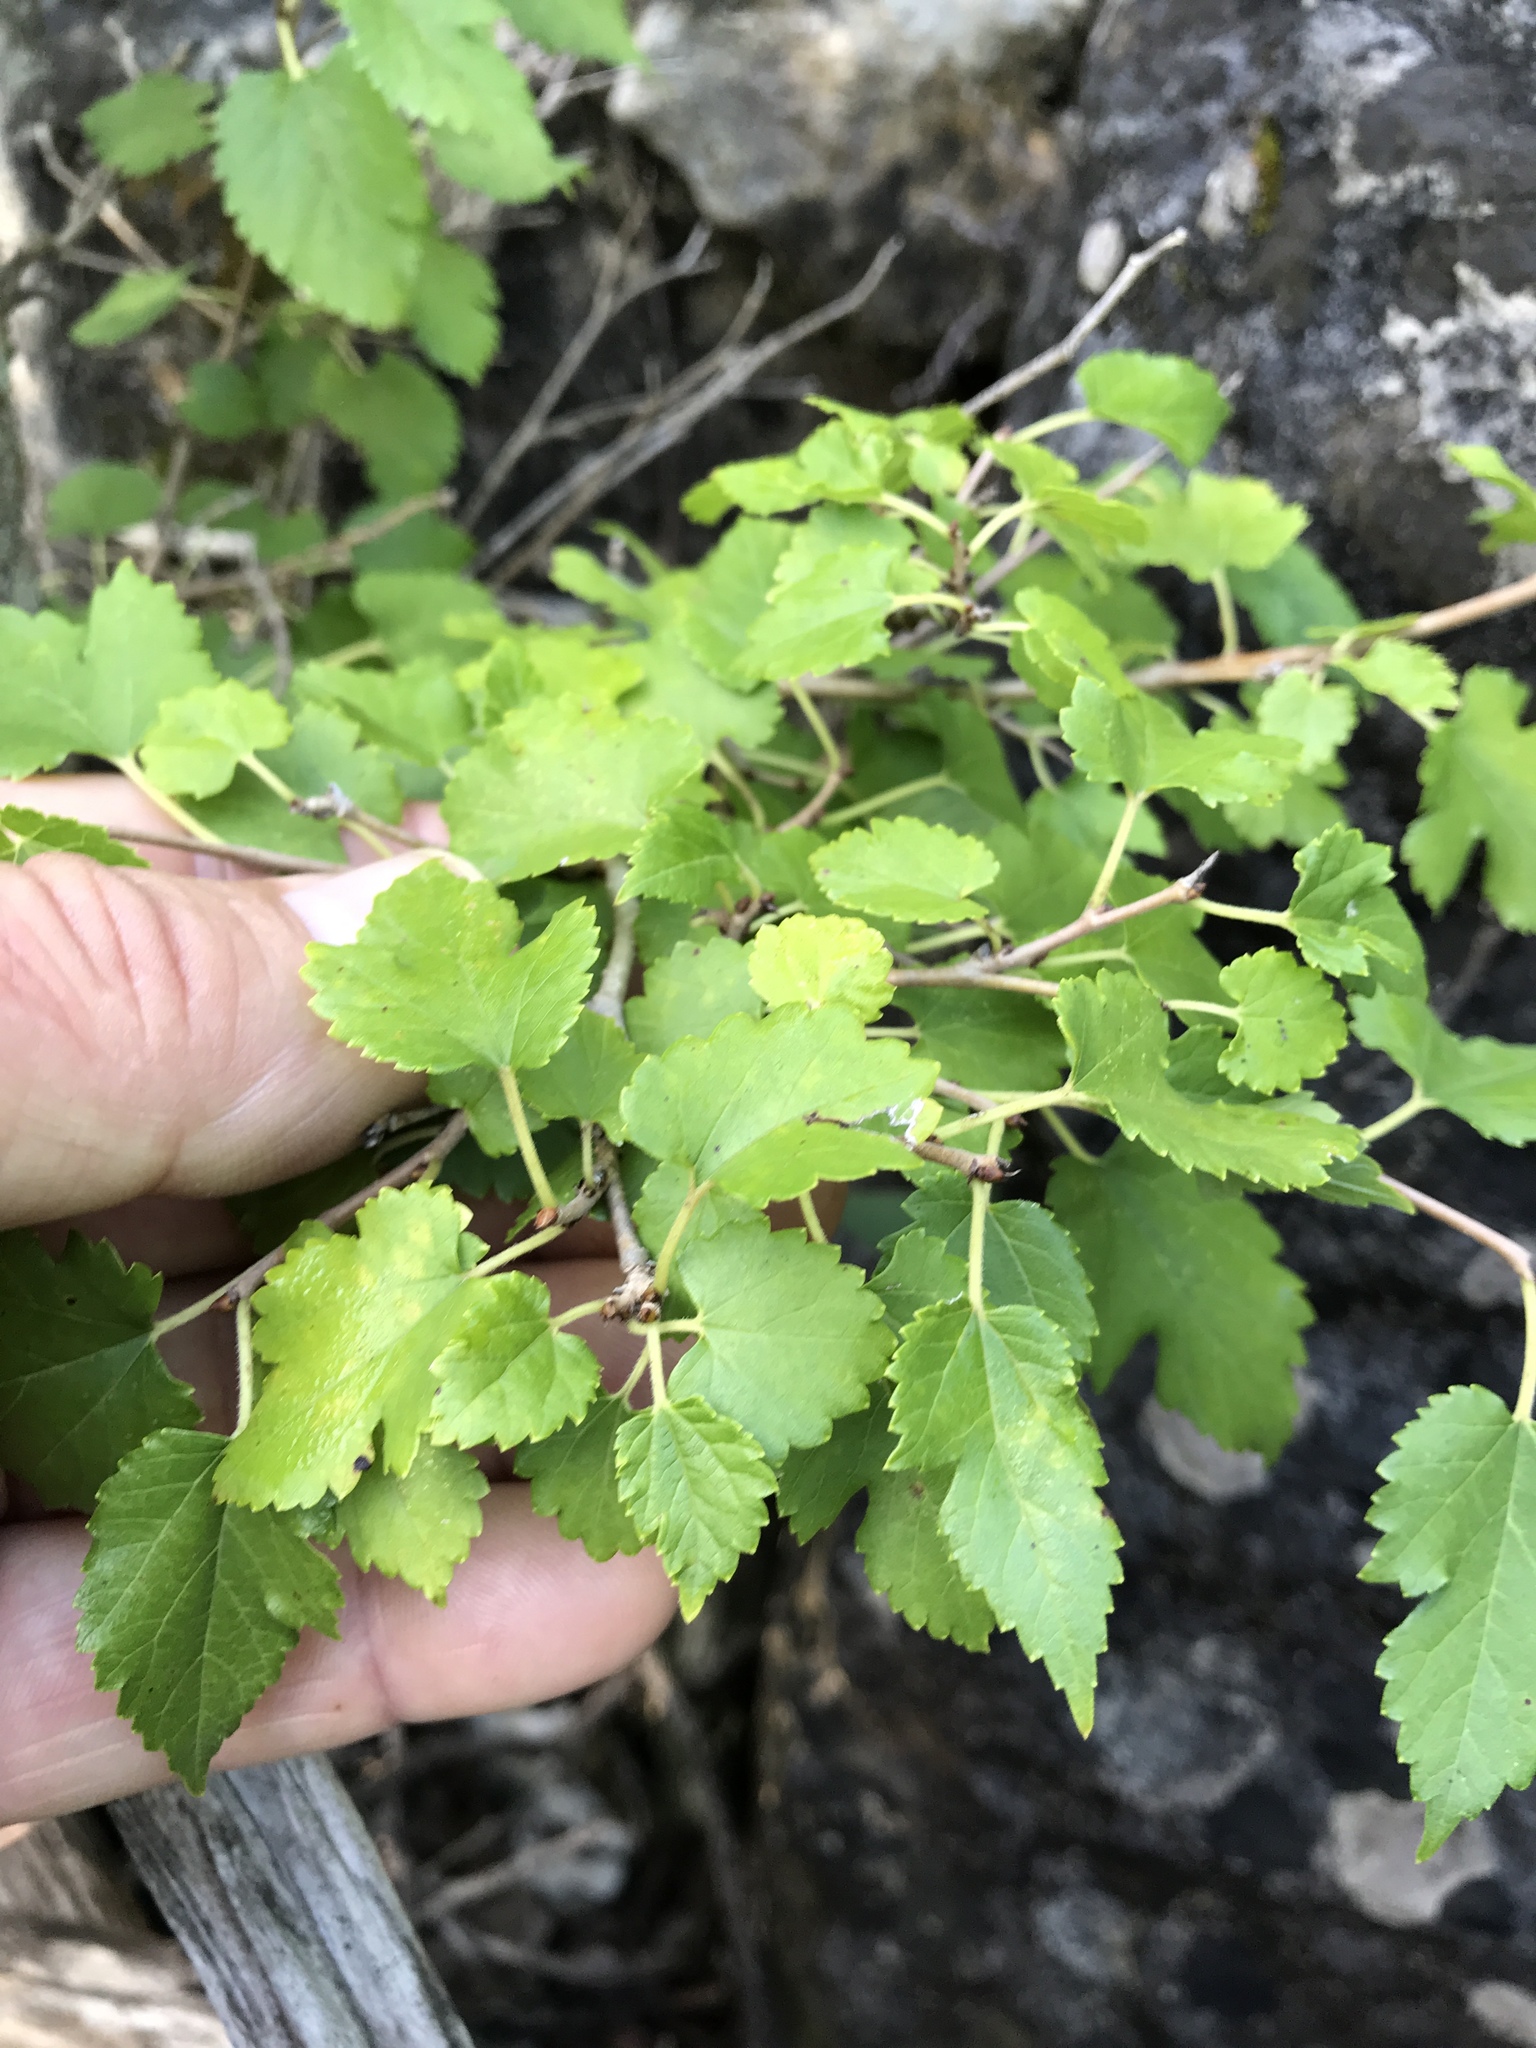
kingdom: Plantae
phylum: Tracheophyta
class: Magnoliopsida
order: Rosales
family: Moraceae
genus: Morus
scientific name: Morus microphylla
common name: Mexican mulberry
